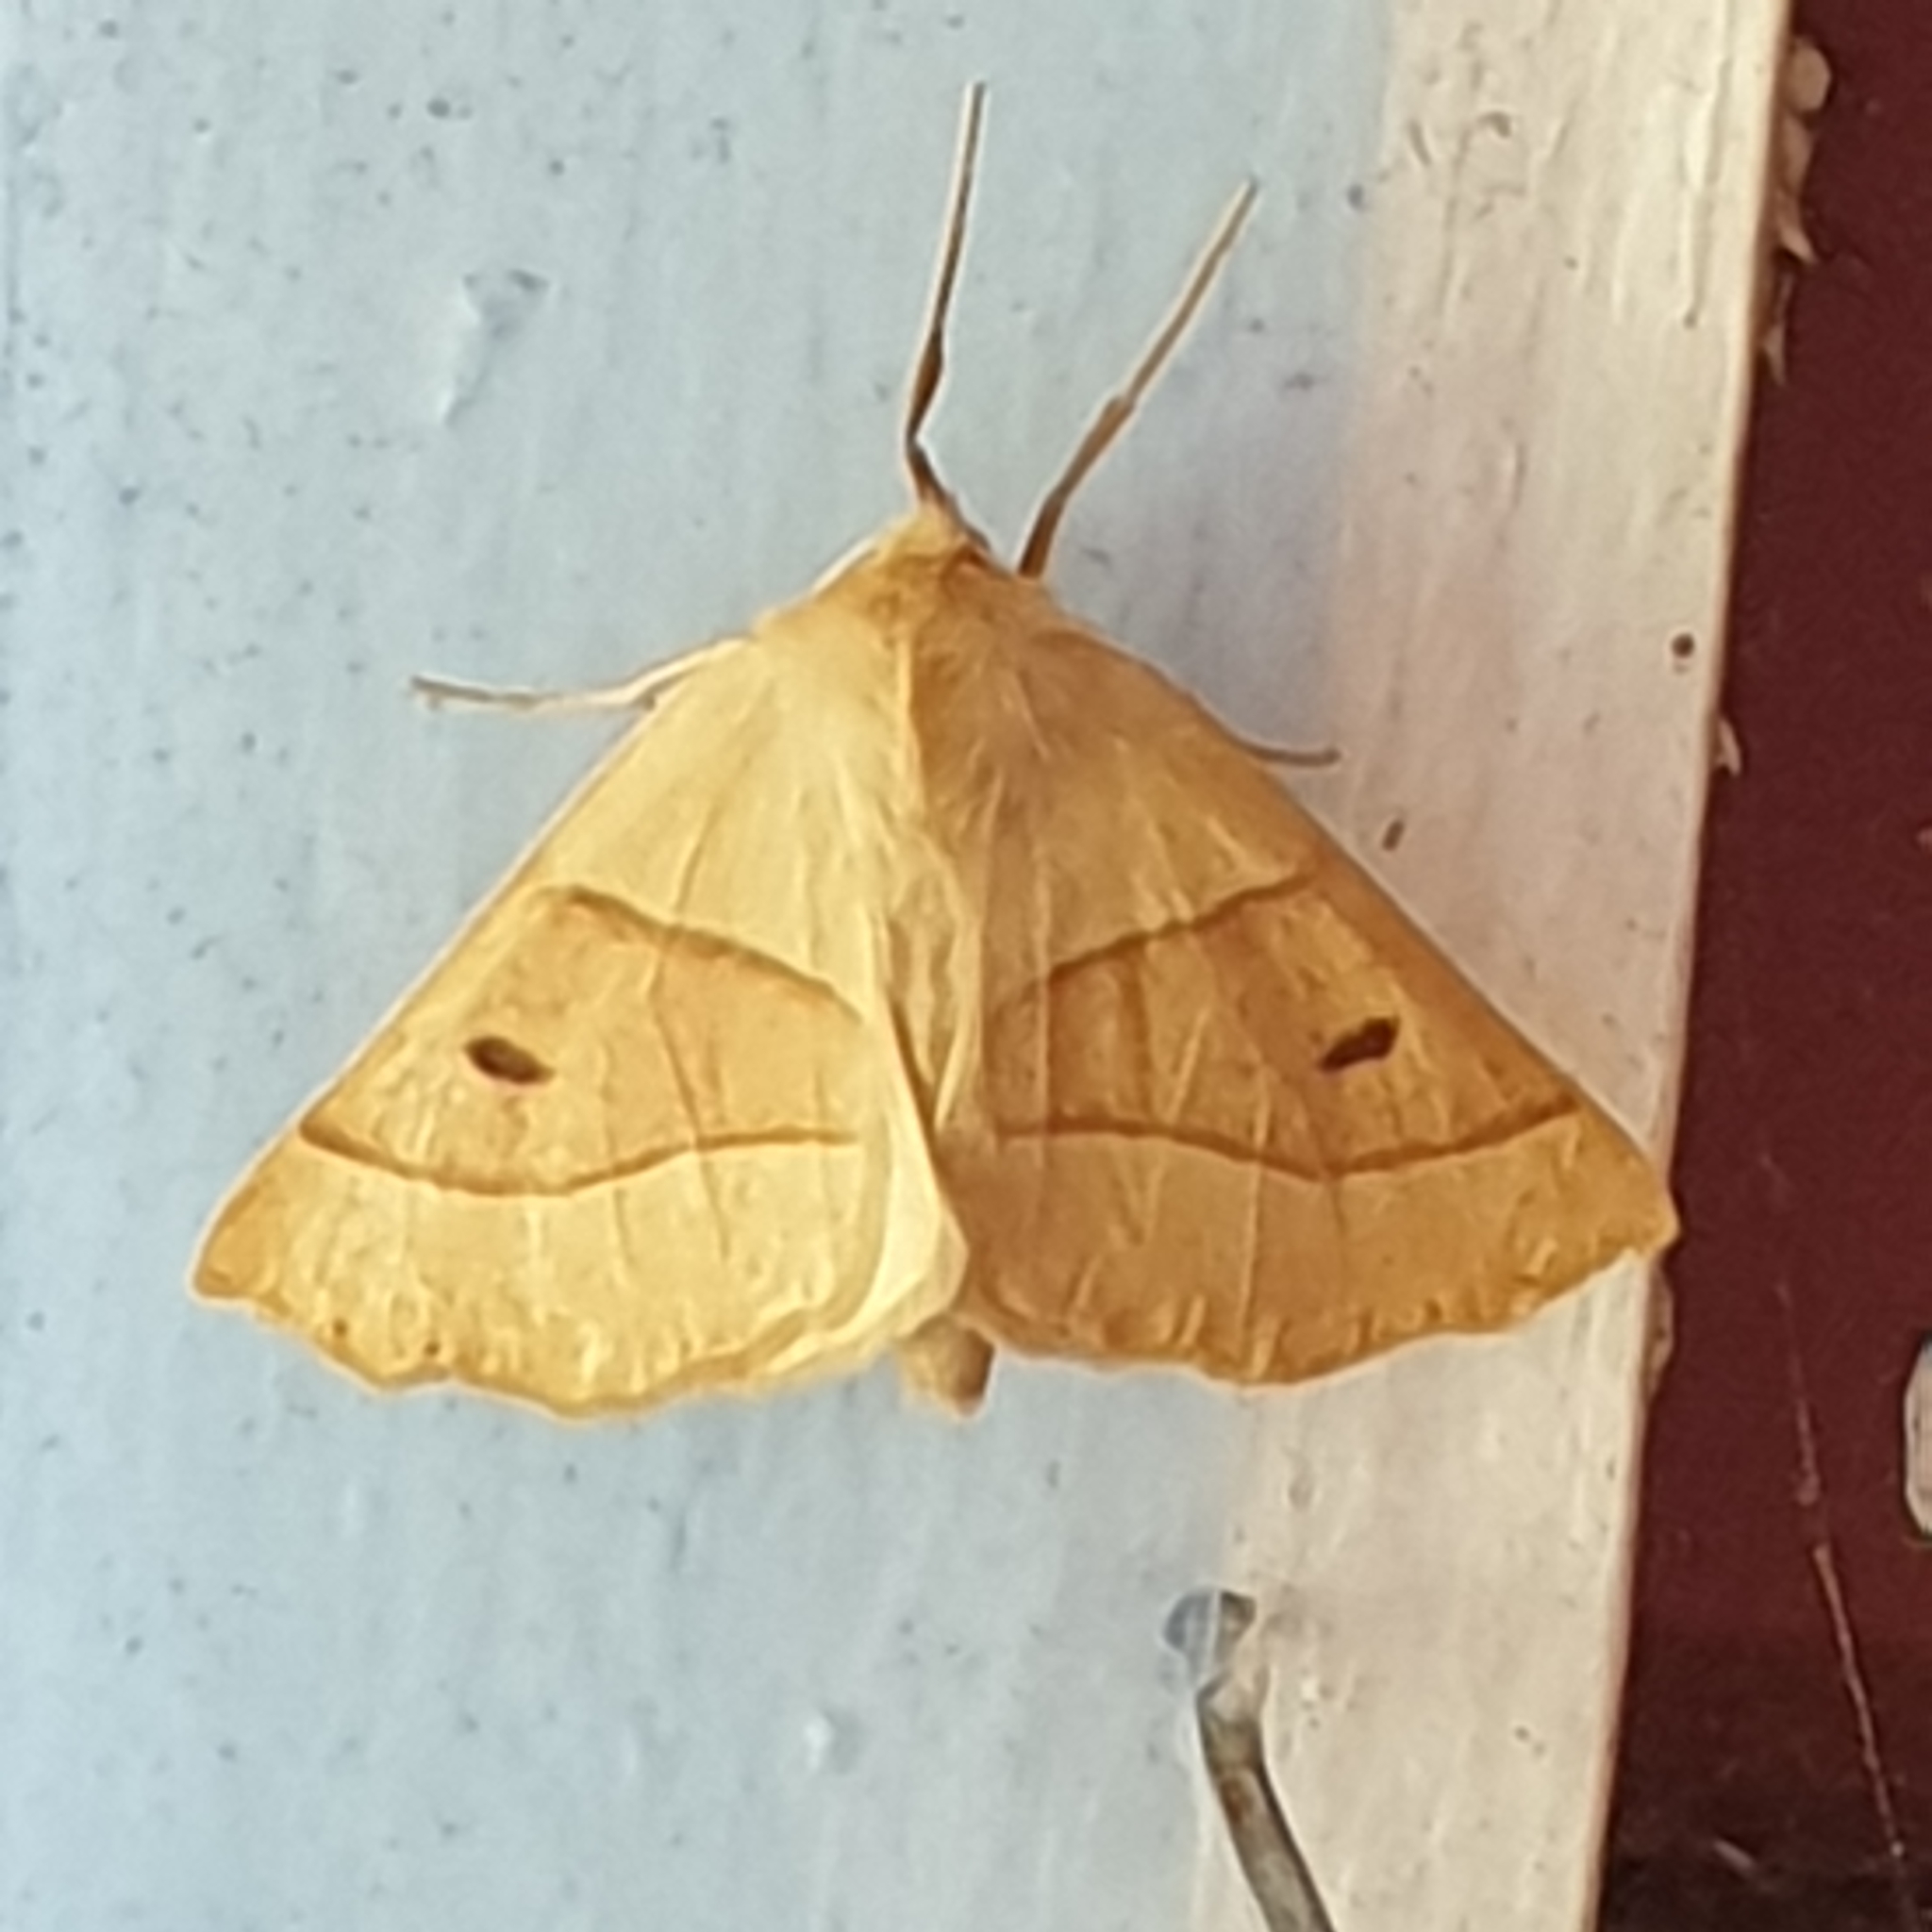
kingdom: Animalia
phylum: Arthropoda
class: Insecta
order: Lepidoptera
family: Geometridae
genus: Crocallis
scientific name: Crocallis elinguaria
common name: Scalloped oak
